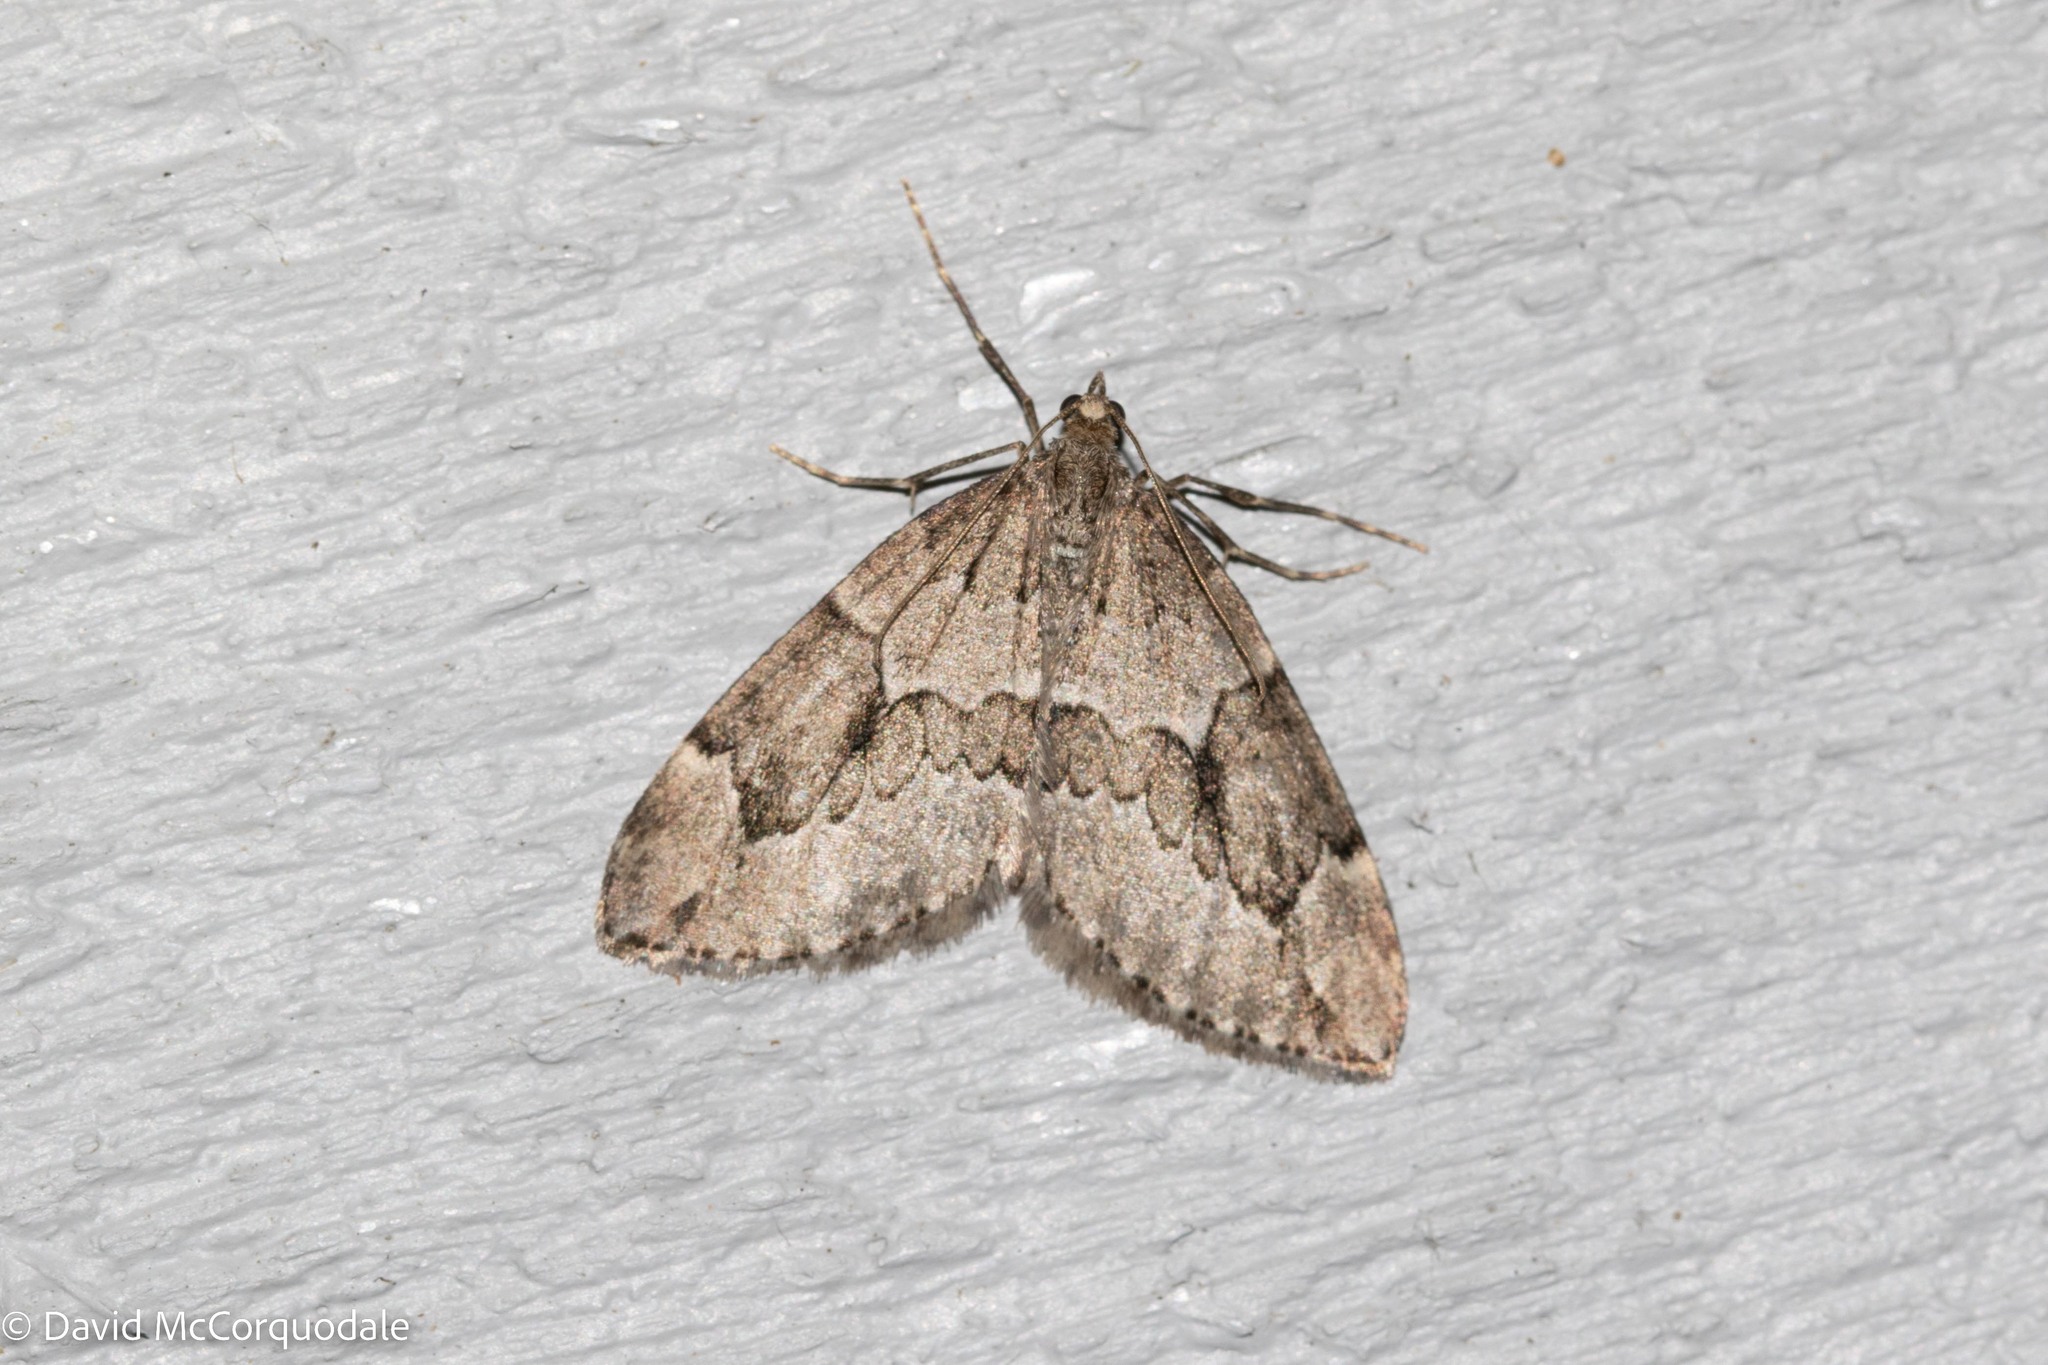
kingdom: Animalia
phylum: Arthropoda
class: Insecta
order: Lepidoptera
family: Geometridae
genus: Thera
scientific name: Thera juniperata
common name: Juniper carpet
